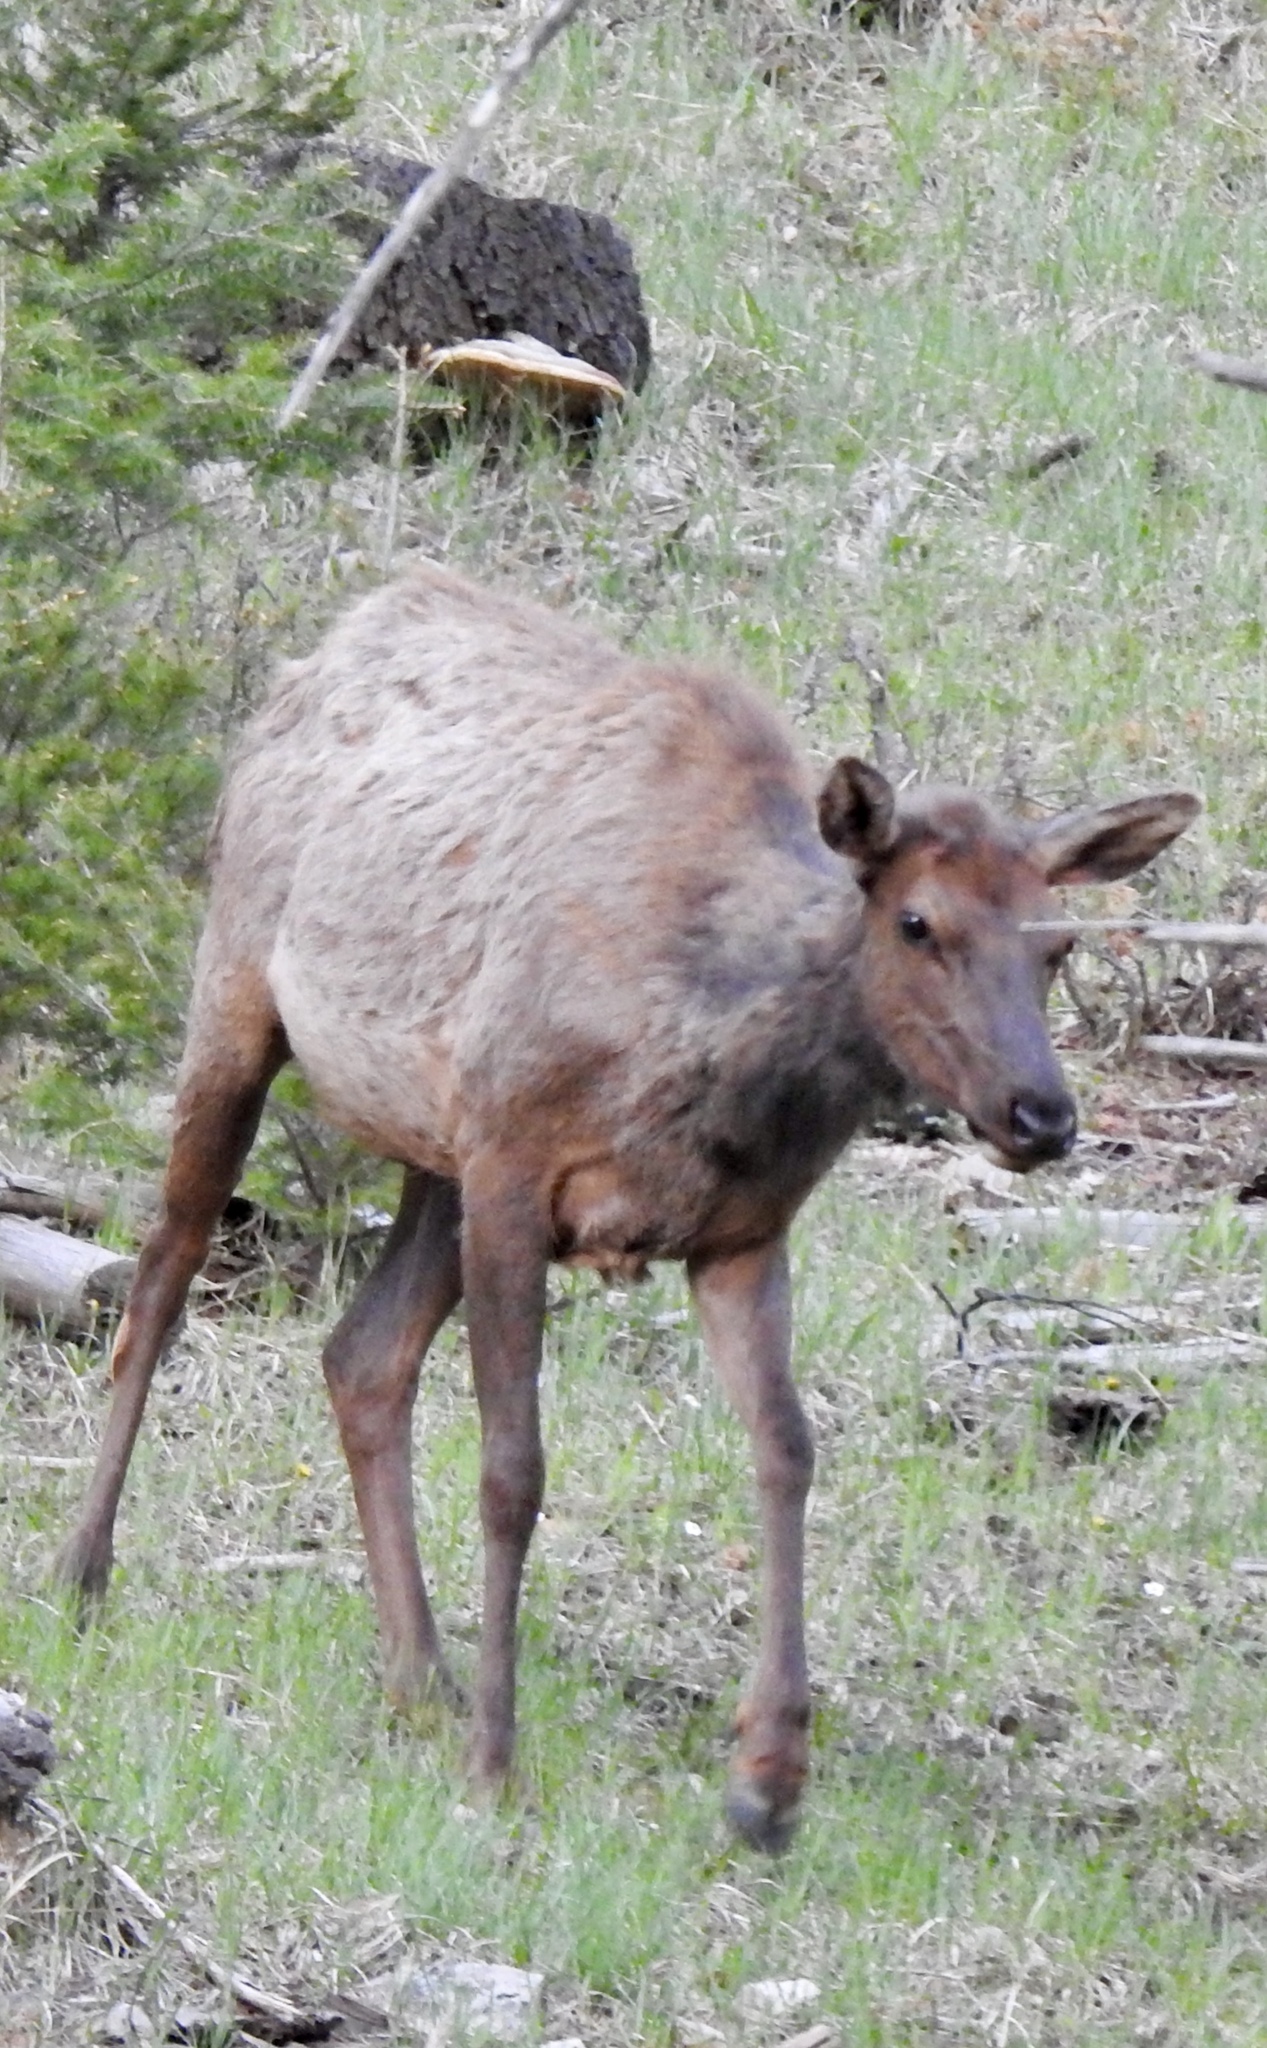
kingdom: Animalia
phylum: Chordata
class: Mammalia
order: Artiodactyla
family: Cervidae
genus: Cervus
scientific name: Cervus elaphus
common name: Red deer
